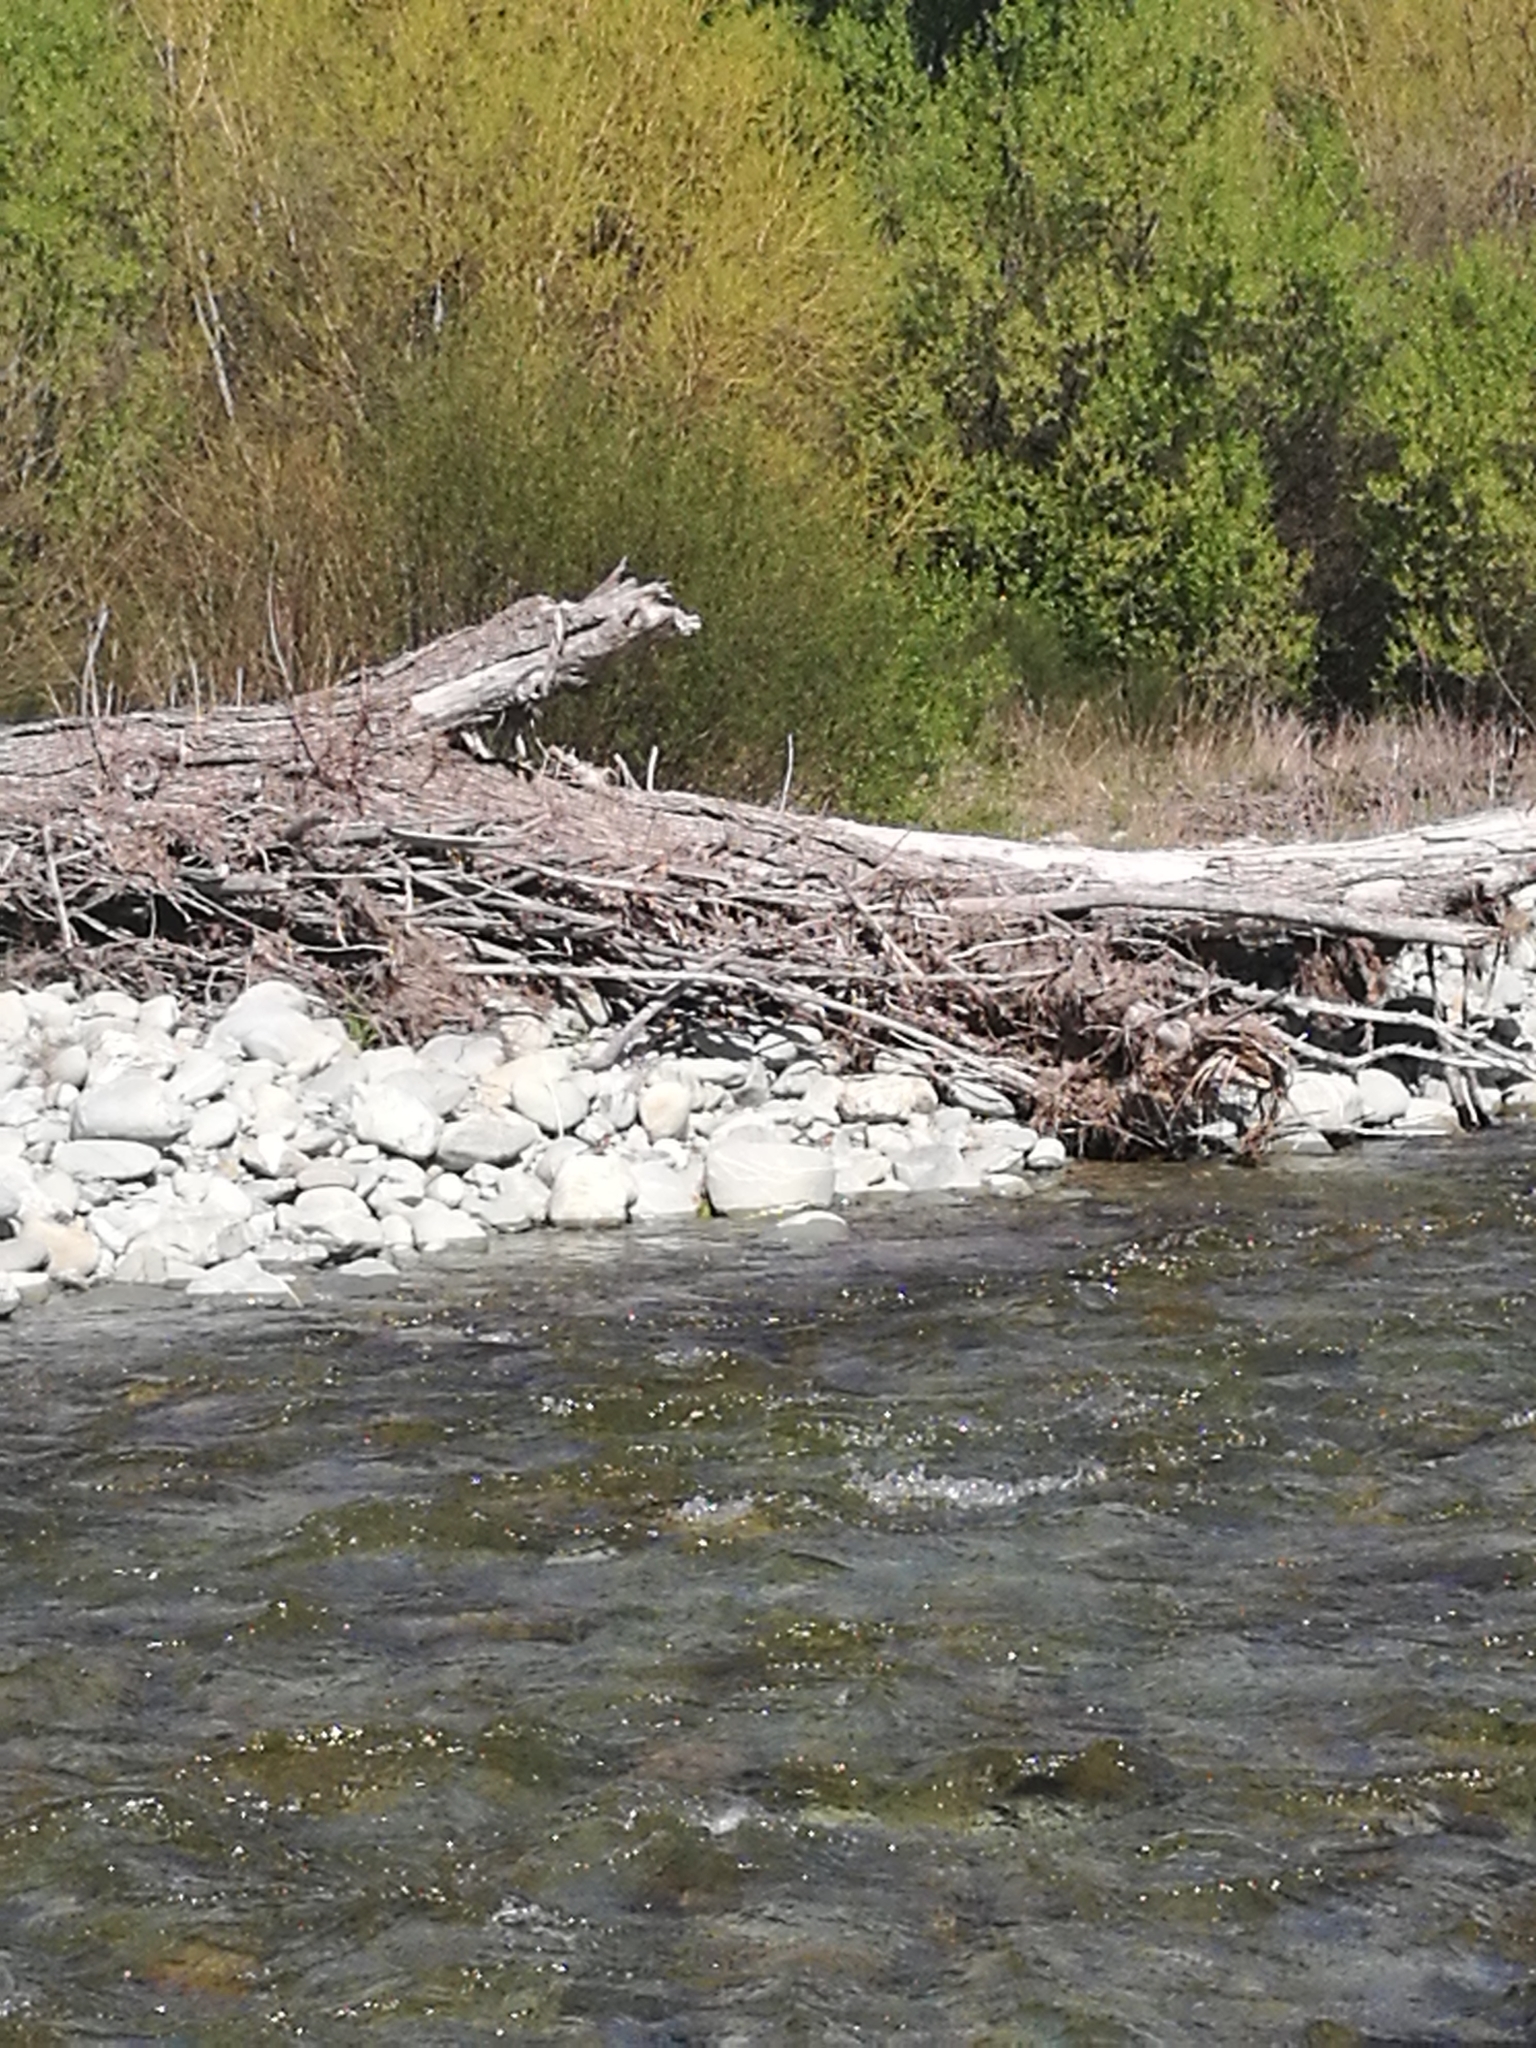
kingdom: Plantae
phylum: Tracheophyta
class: Magnoliopsida
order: Malpighiales
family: Salicaceae
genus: Salix
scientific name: Salix
